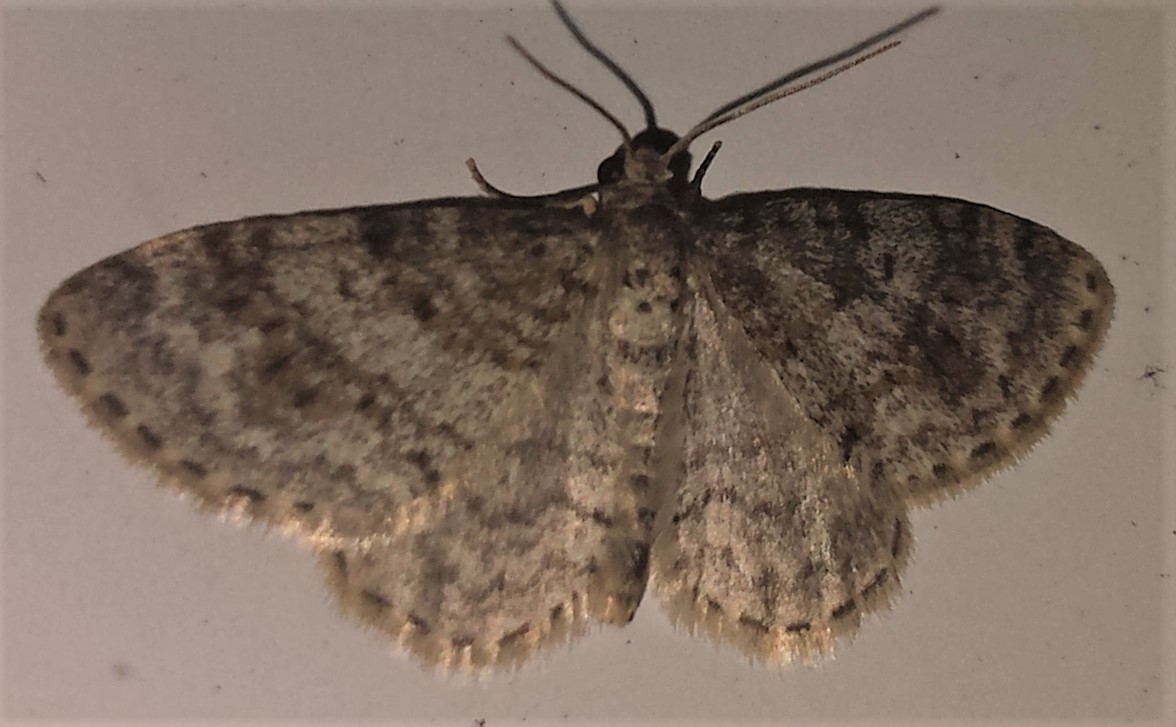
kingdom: Animalia
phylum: Arthropoda
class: Insecta
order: Lepidoptera
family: Geometridae
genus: Hydrelia
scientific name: Hydrelia inornata
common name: Unadorned carpet moth
